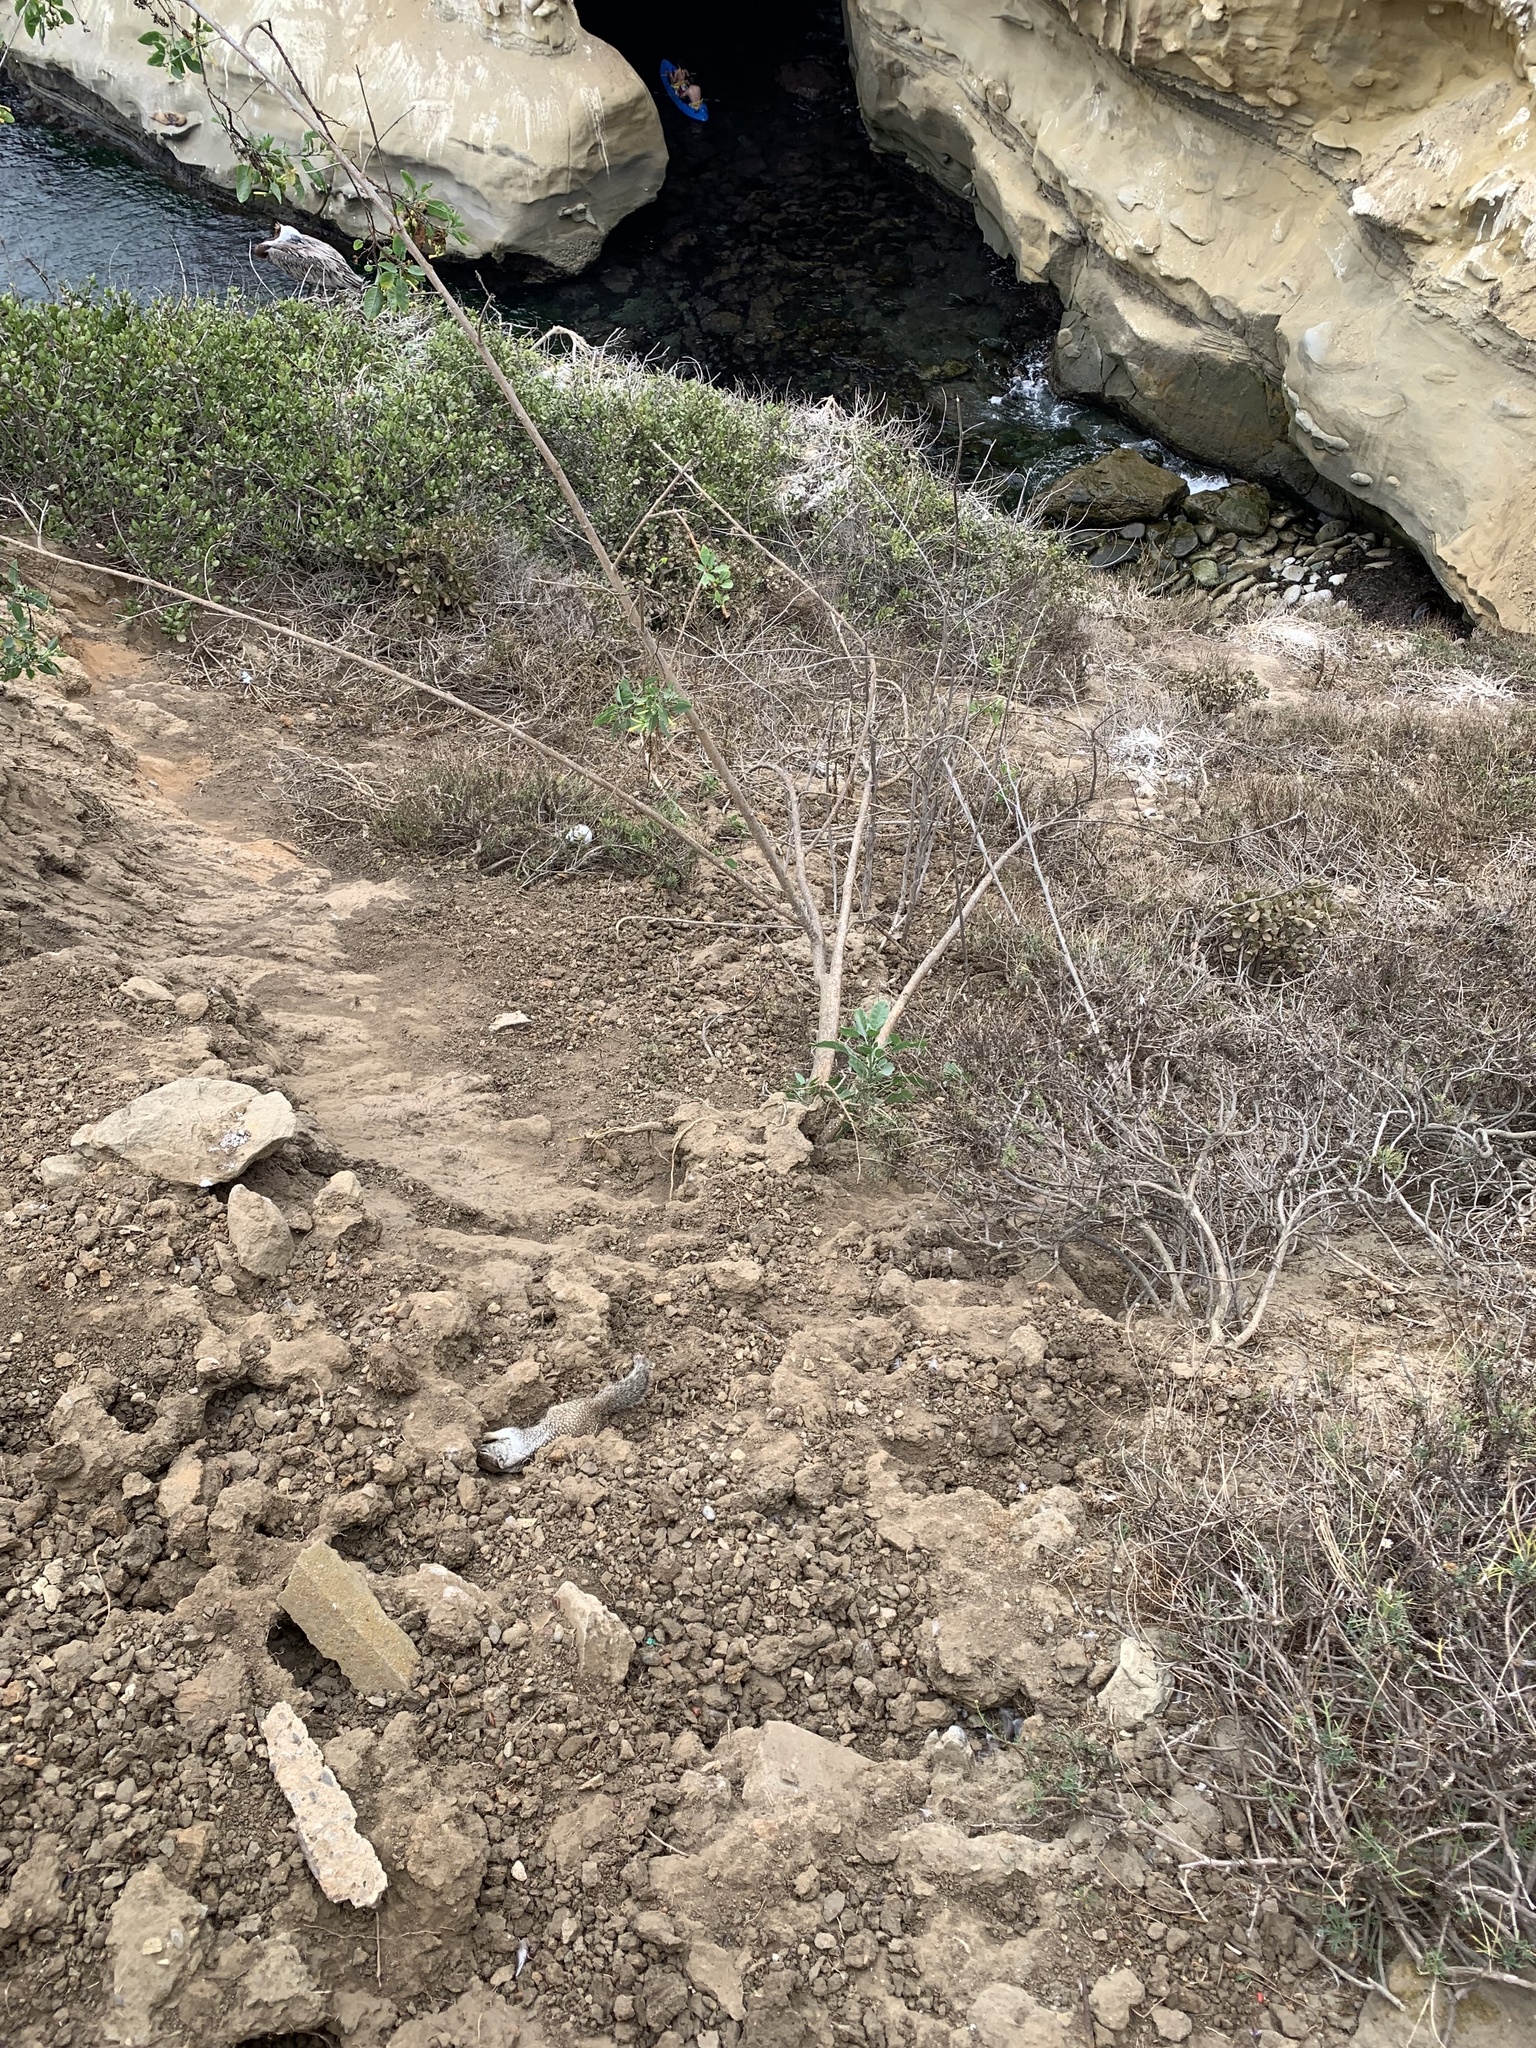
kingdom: Animalia
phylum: Chordata
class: Mammalia
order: Rodentia
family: Sciuridae
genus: Otospermophilus
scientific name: Otospermophilus beecheyi
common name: California ground squirrel
